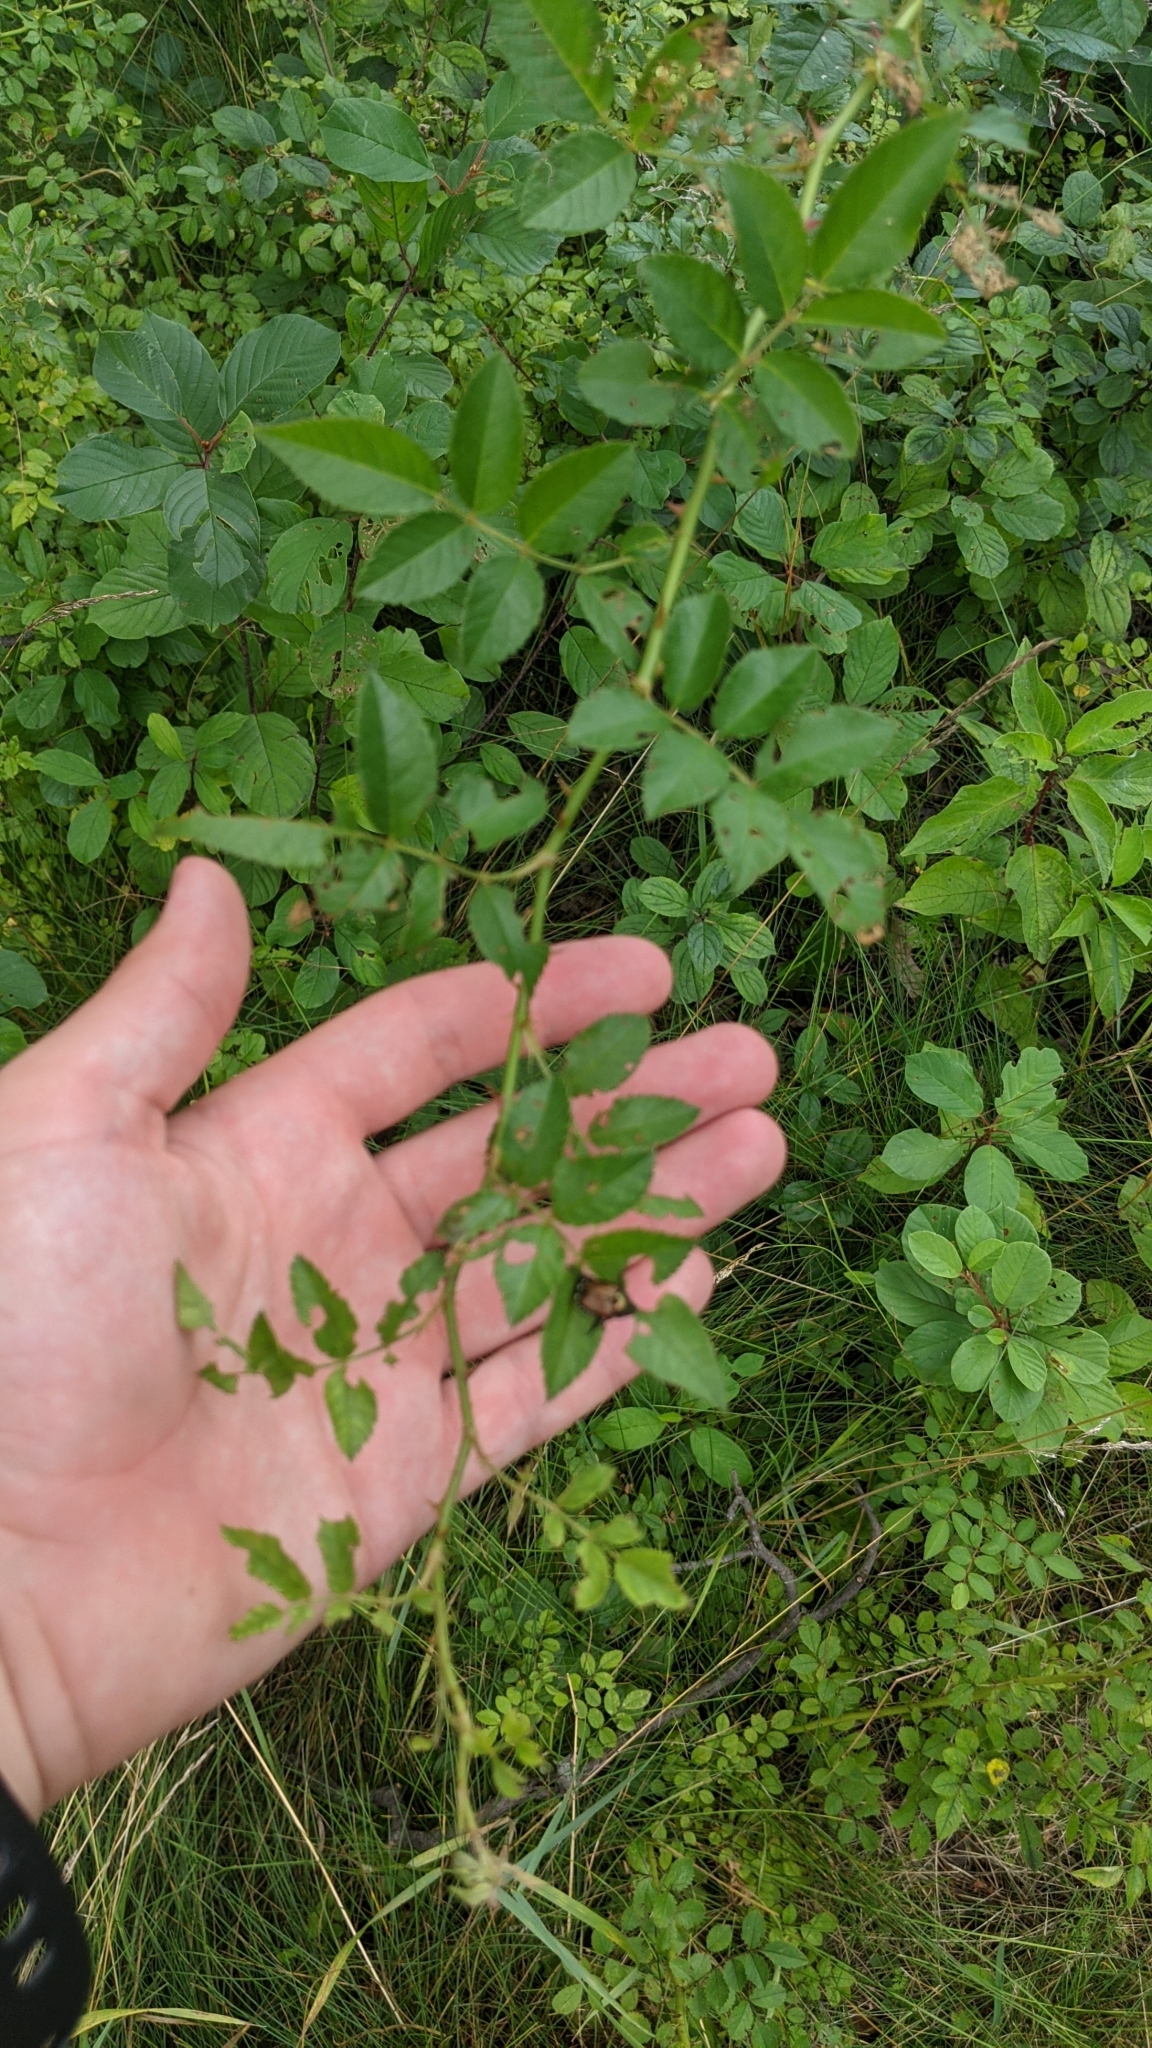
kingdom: Plantae
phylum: Tracheophyta
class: Magnoliopsida
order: Rosales
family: Rosaceae
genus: Rosa
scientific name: Rosa multiflora
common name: Multiflora rose
